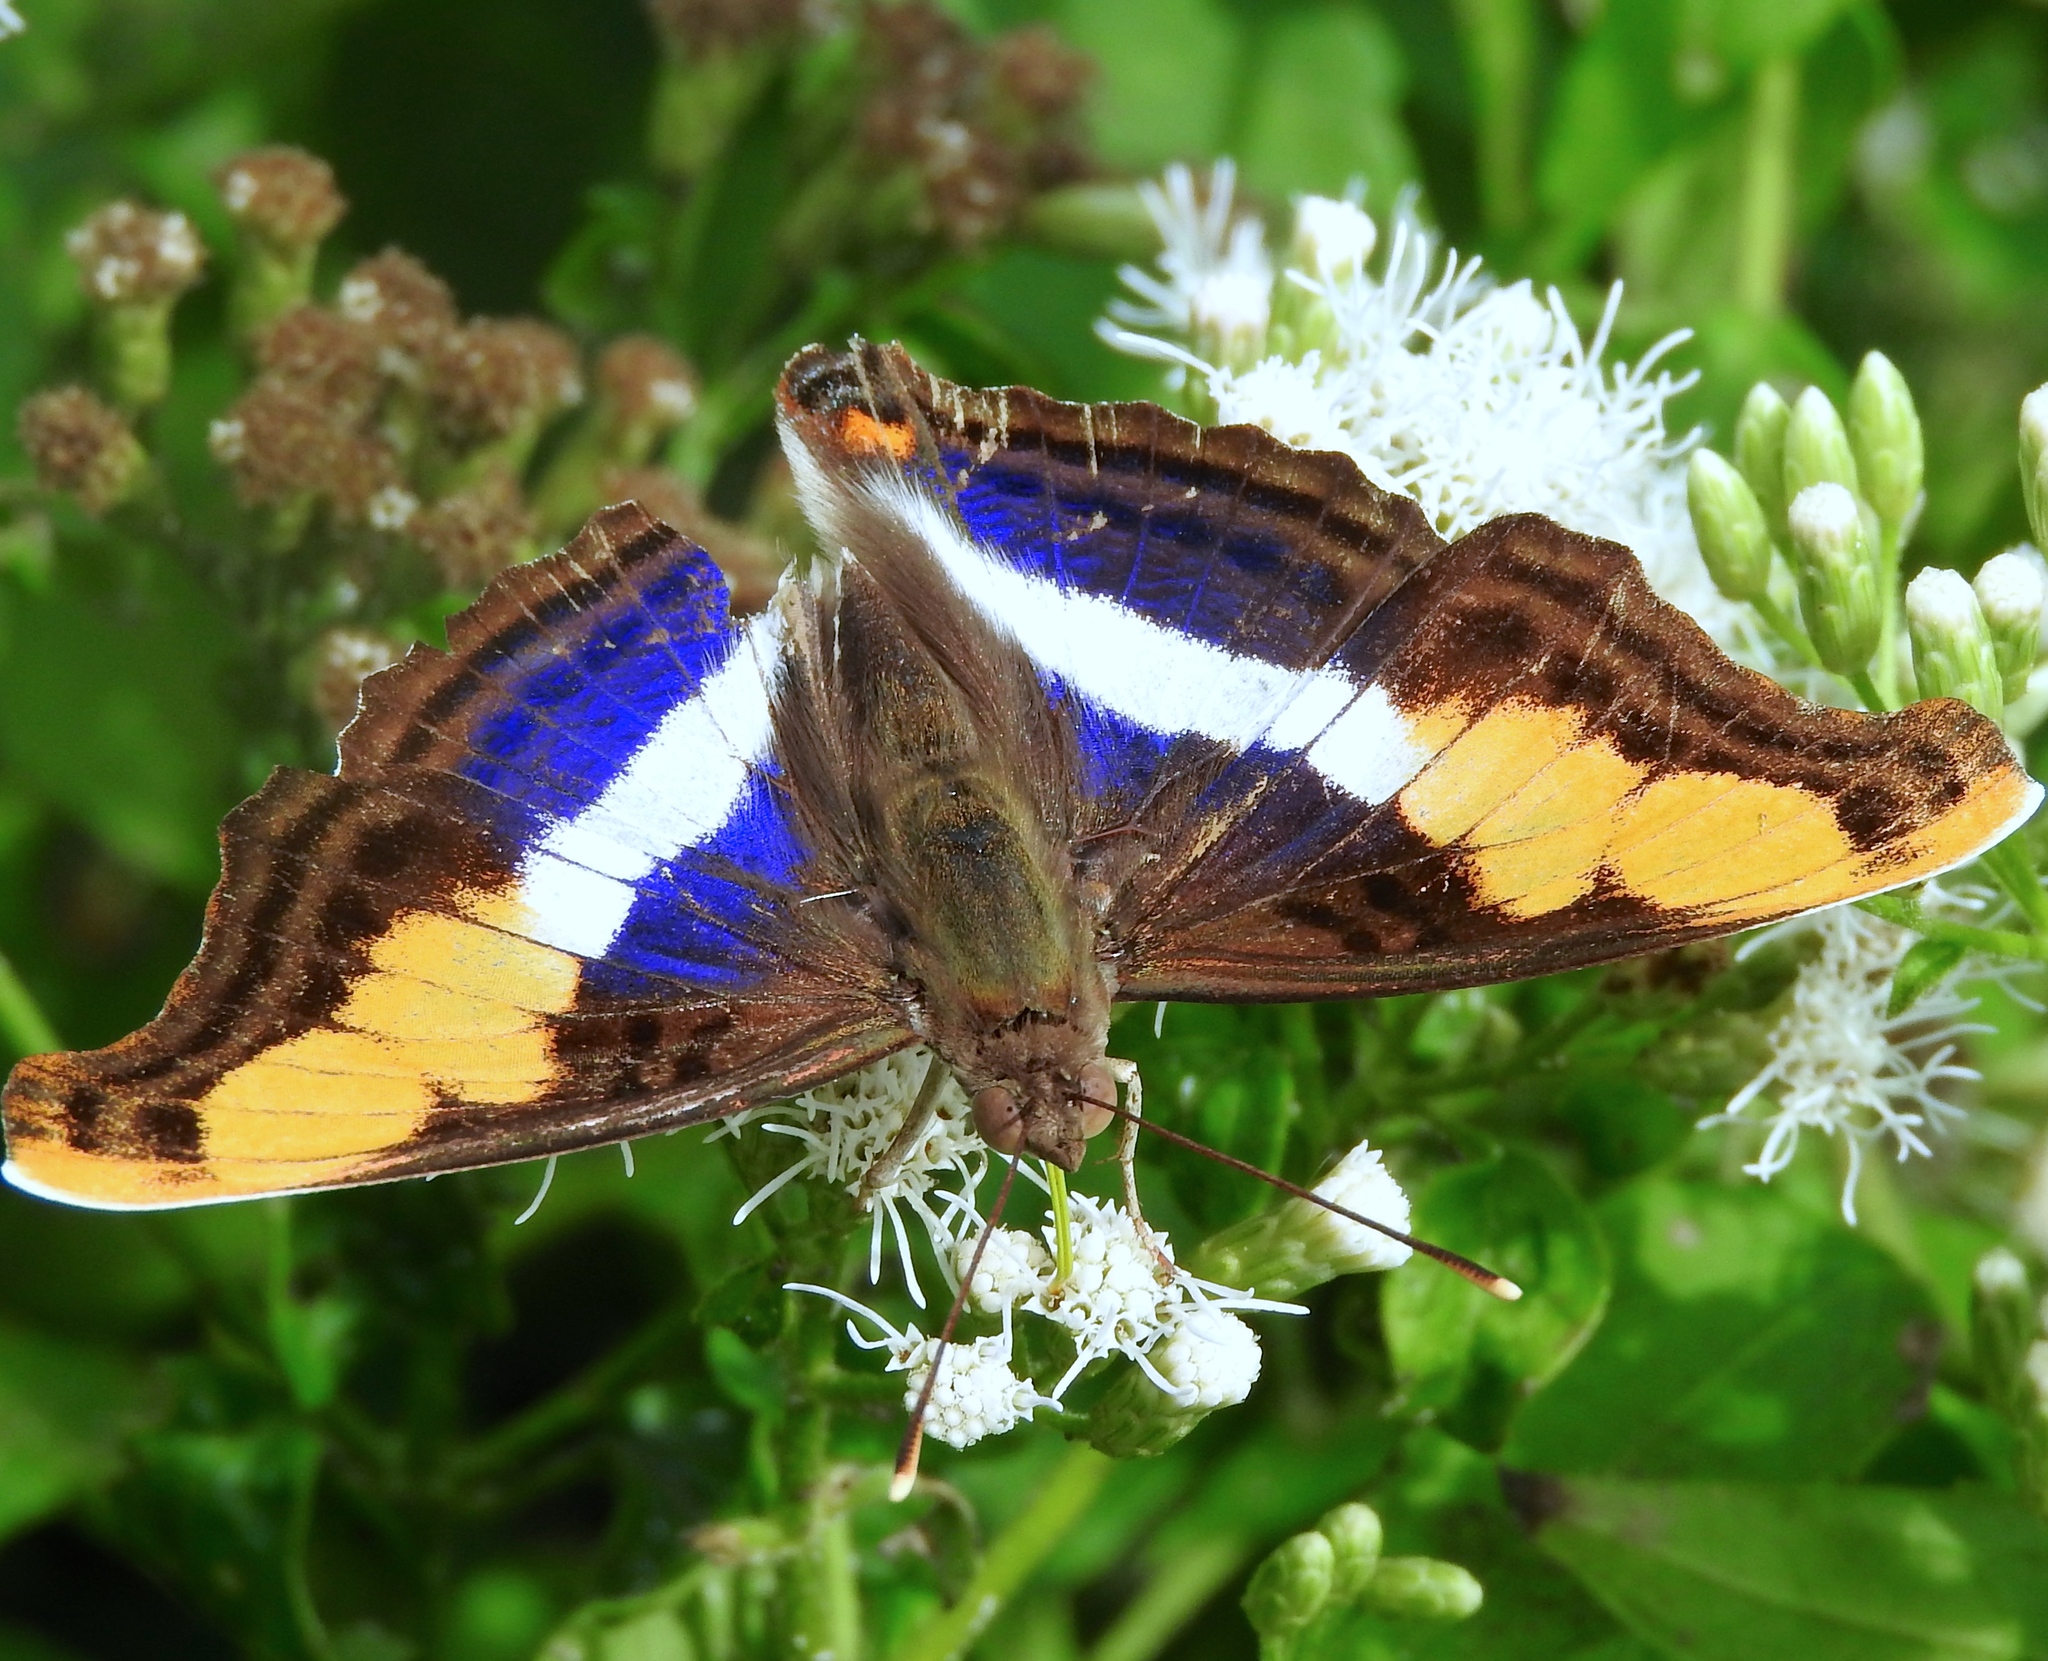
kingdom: Animalia
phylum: Arthropoda
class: Insecta
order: Lepidoptera
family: Nymphalidae
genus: Doxocopa
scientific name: Doxocopa laure
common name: Silver emperor
